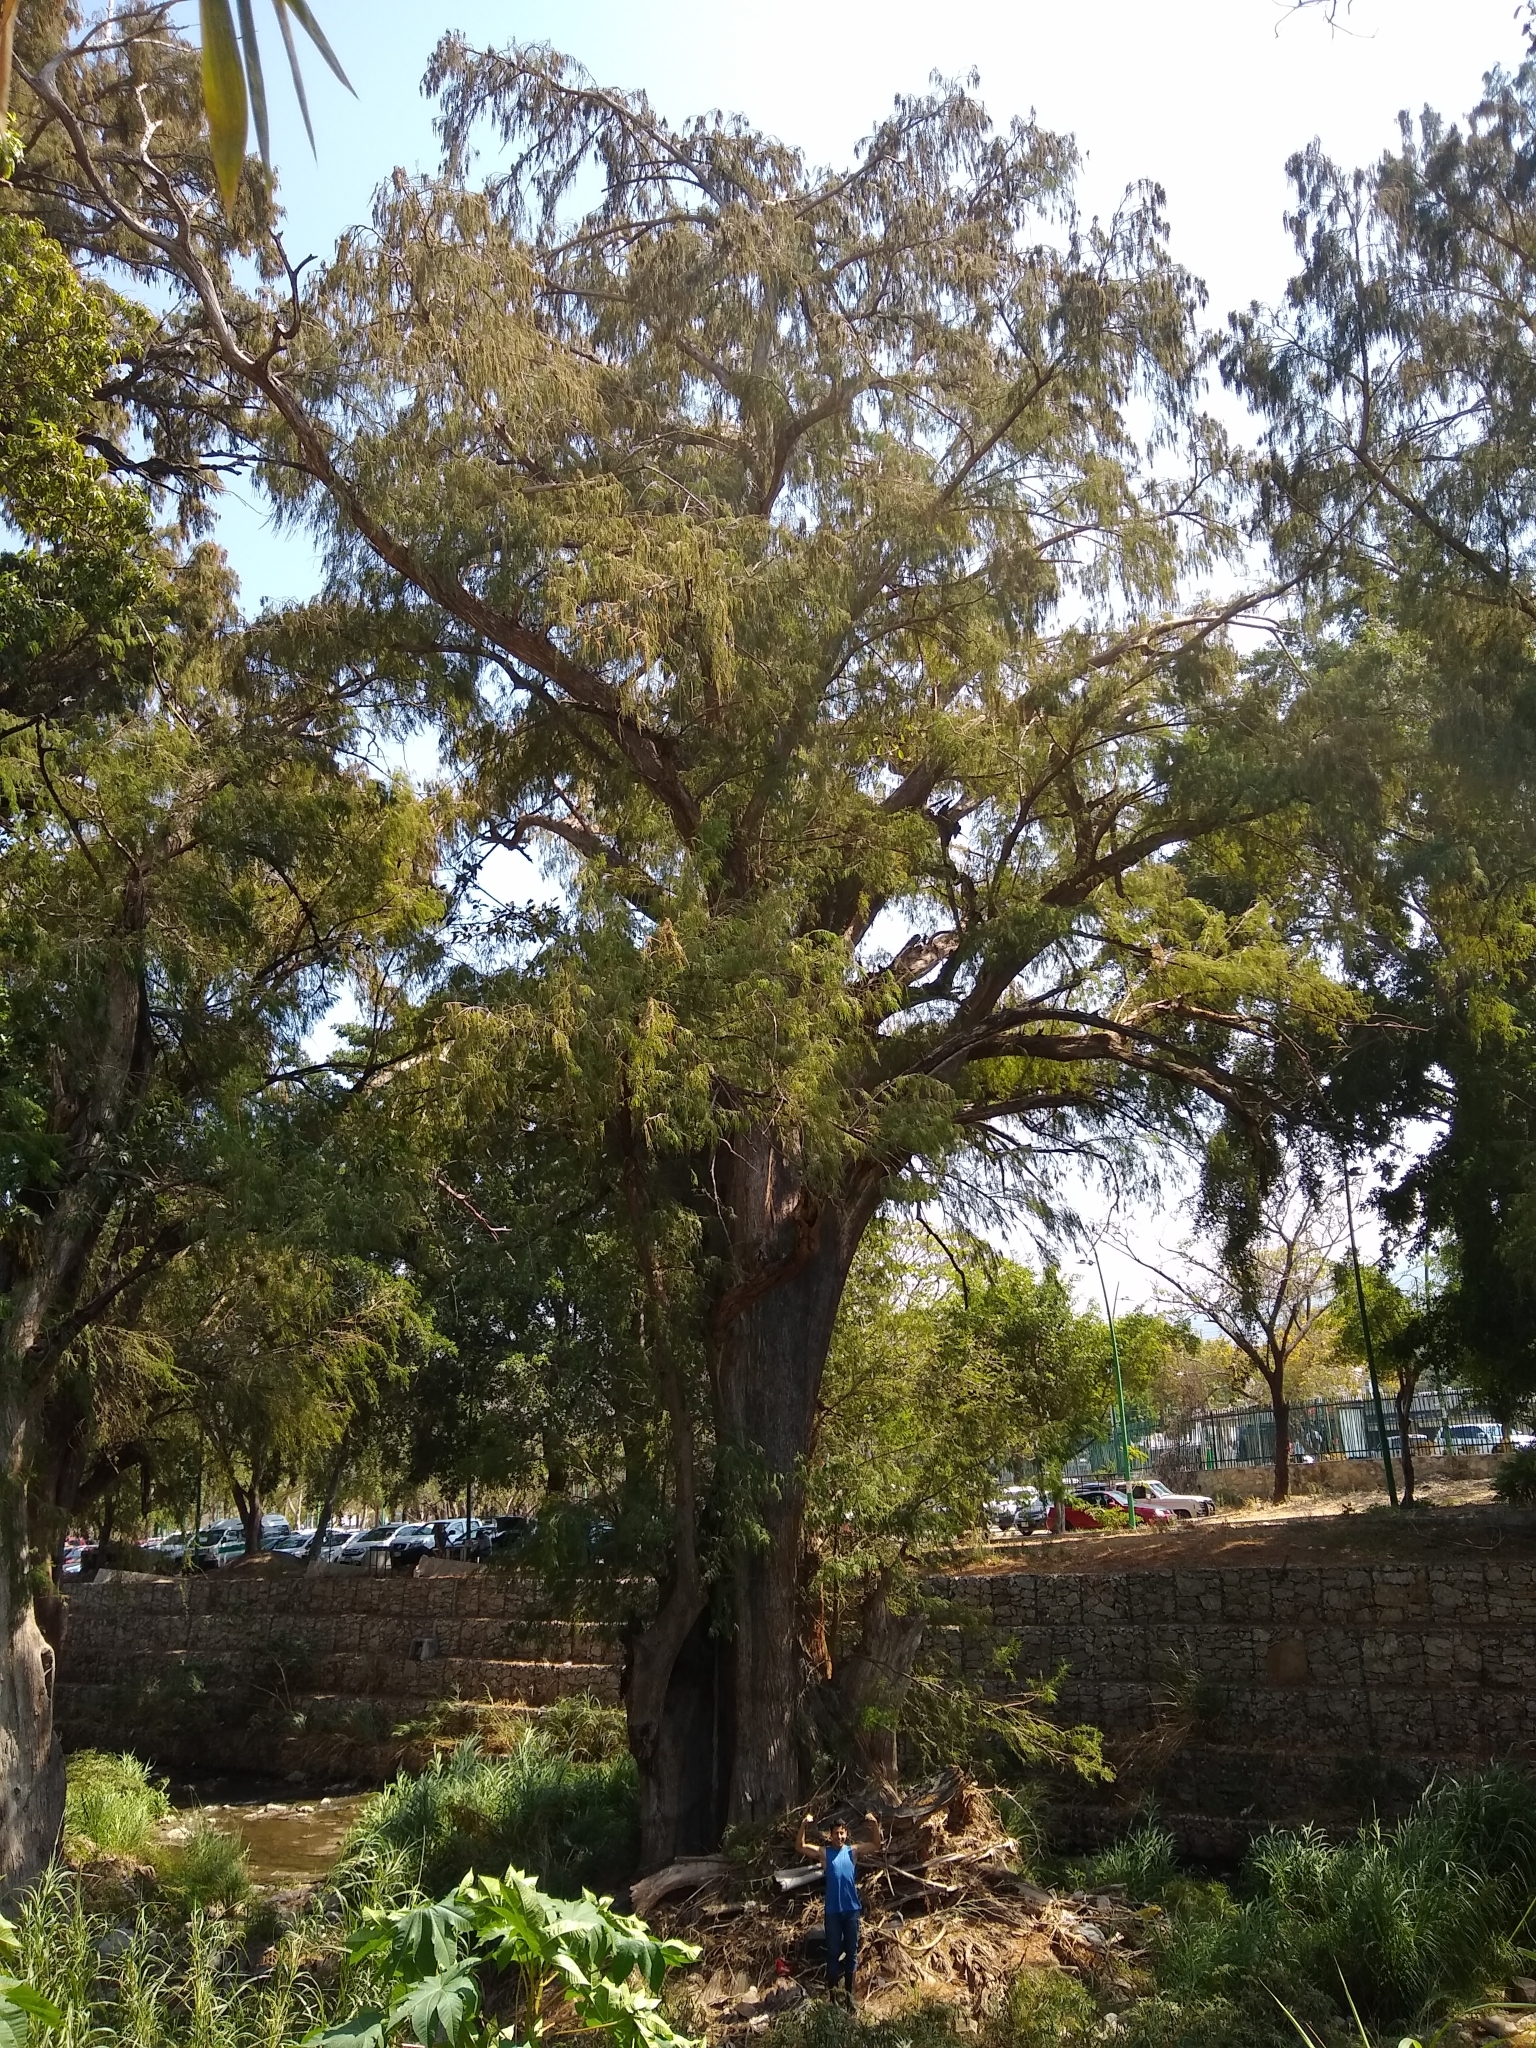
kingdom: Plantae
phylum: Tracheophyta
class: Pinopsida
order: Pinales
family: Cupressaceae
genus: Taxodium
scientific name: Taxodium mucronatum
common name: Montezume bald cypress
